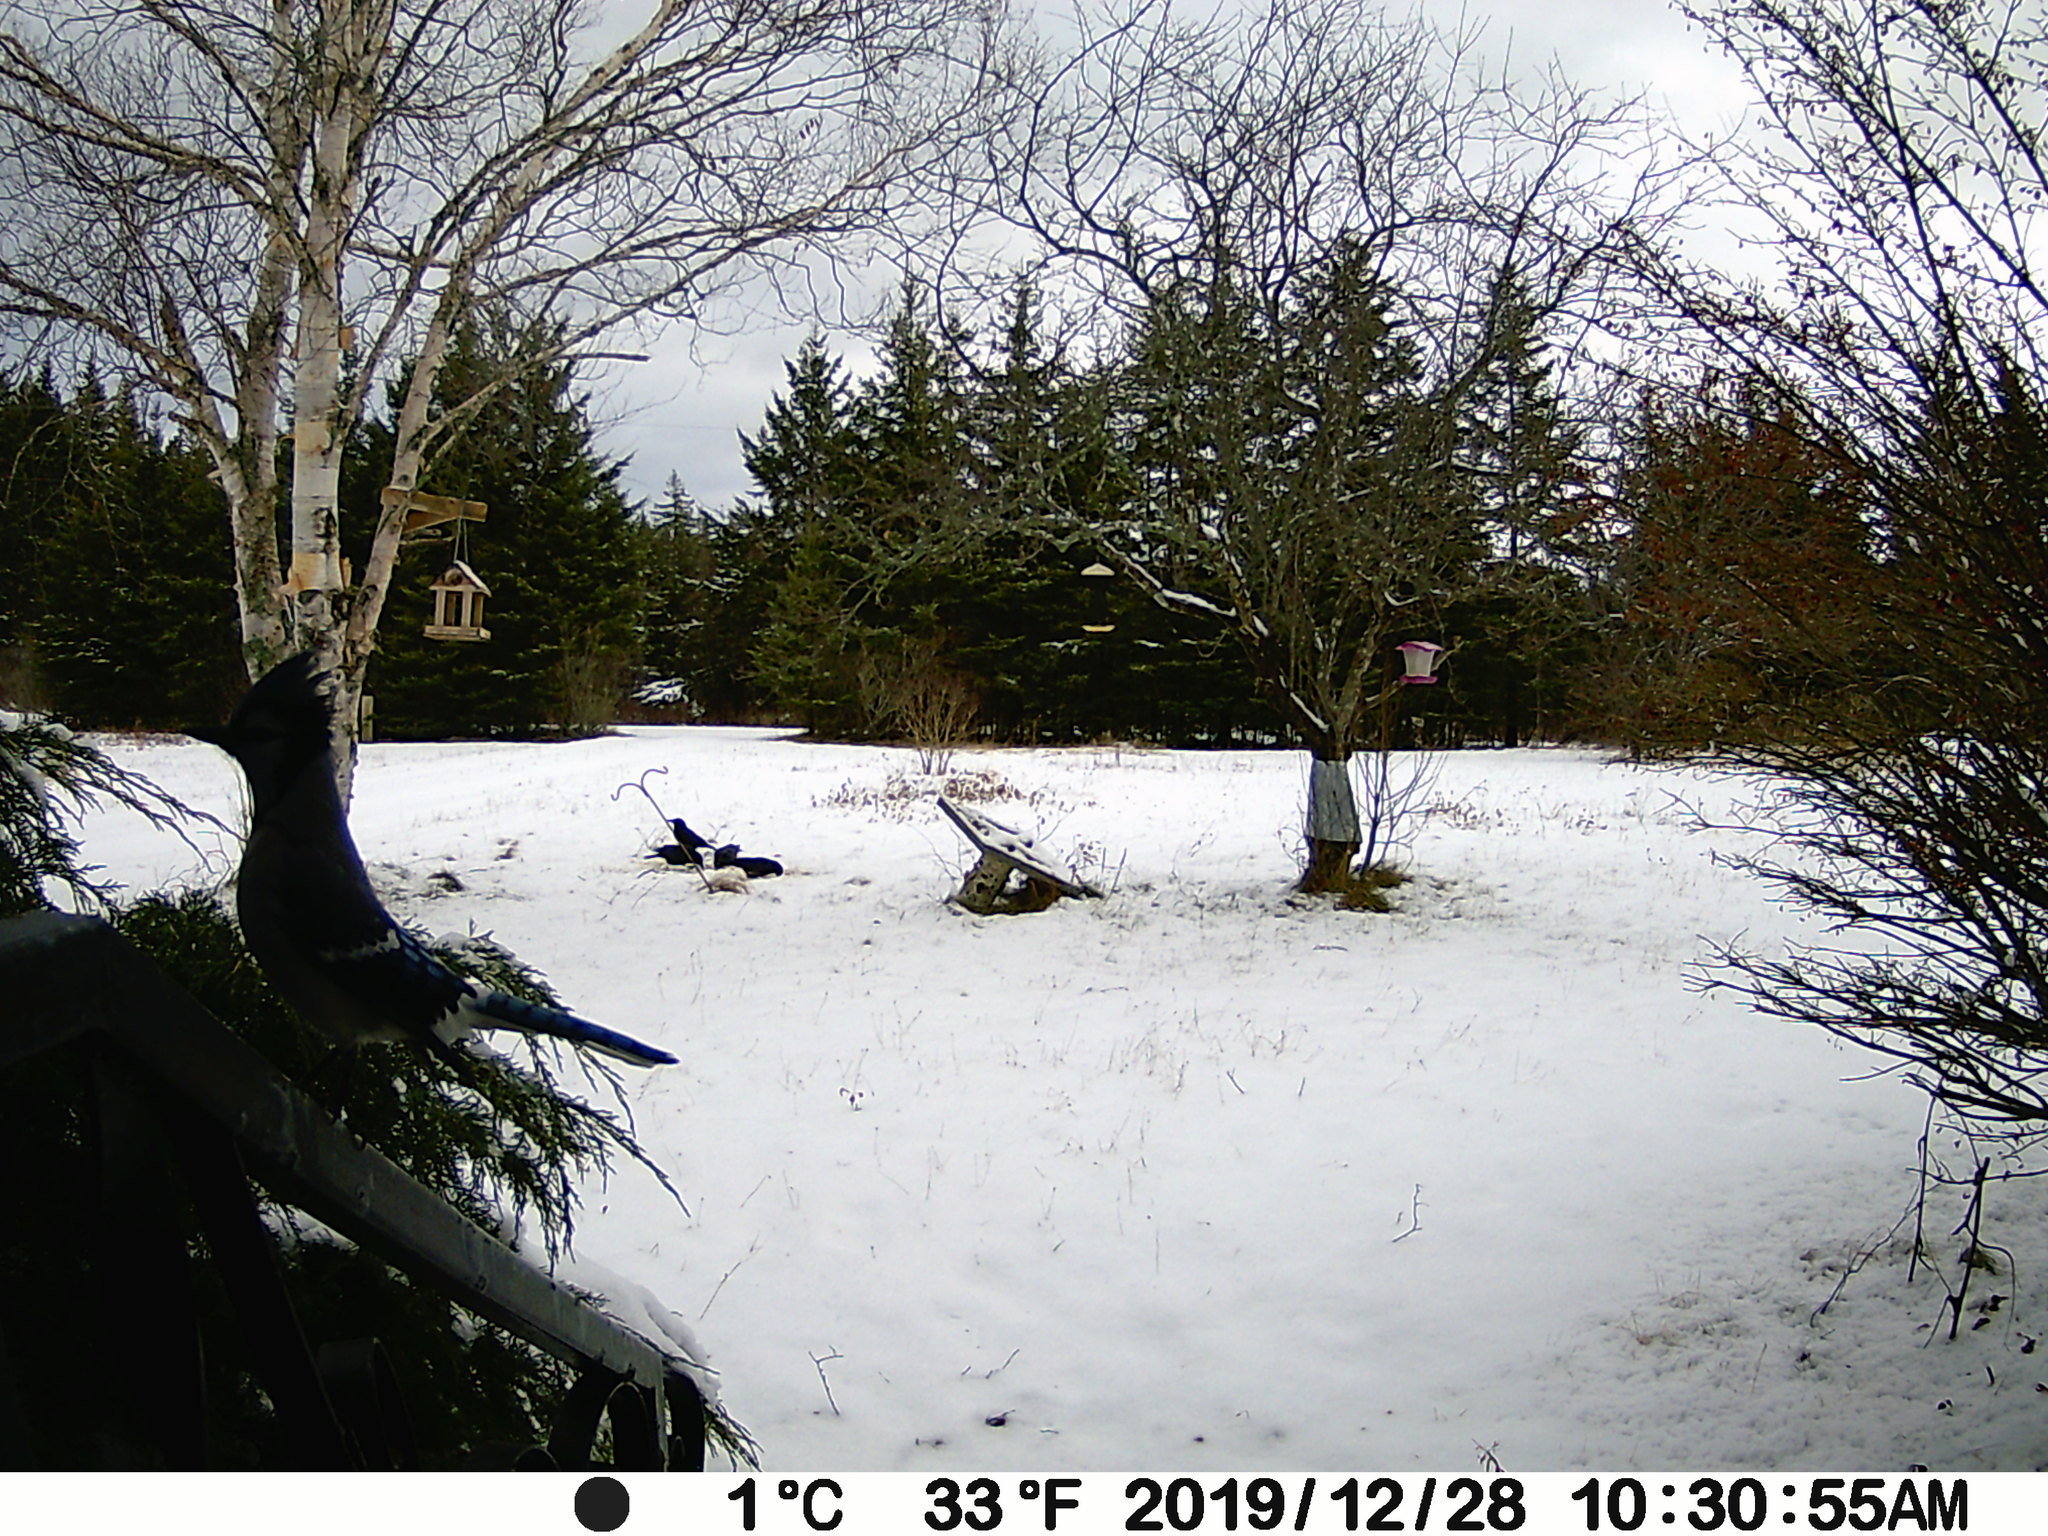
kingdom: Animalia
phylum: Chordata
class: Aves
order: Passeriformes
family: Corvidae
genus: Cyanocitta
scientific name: Cyanocitta cristata
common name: Blue jay
